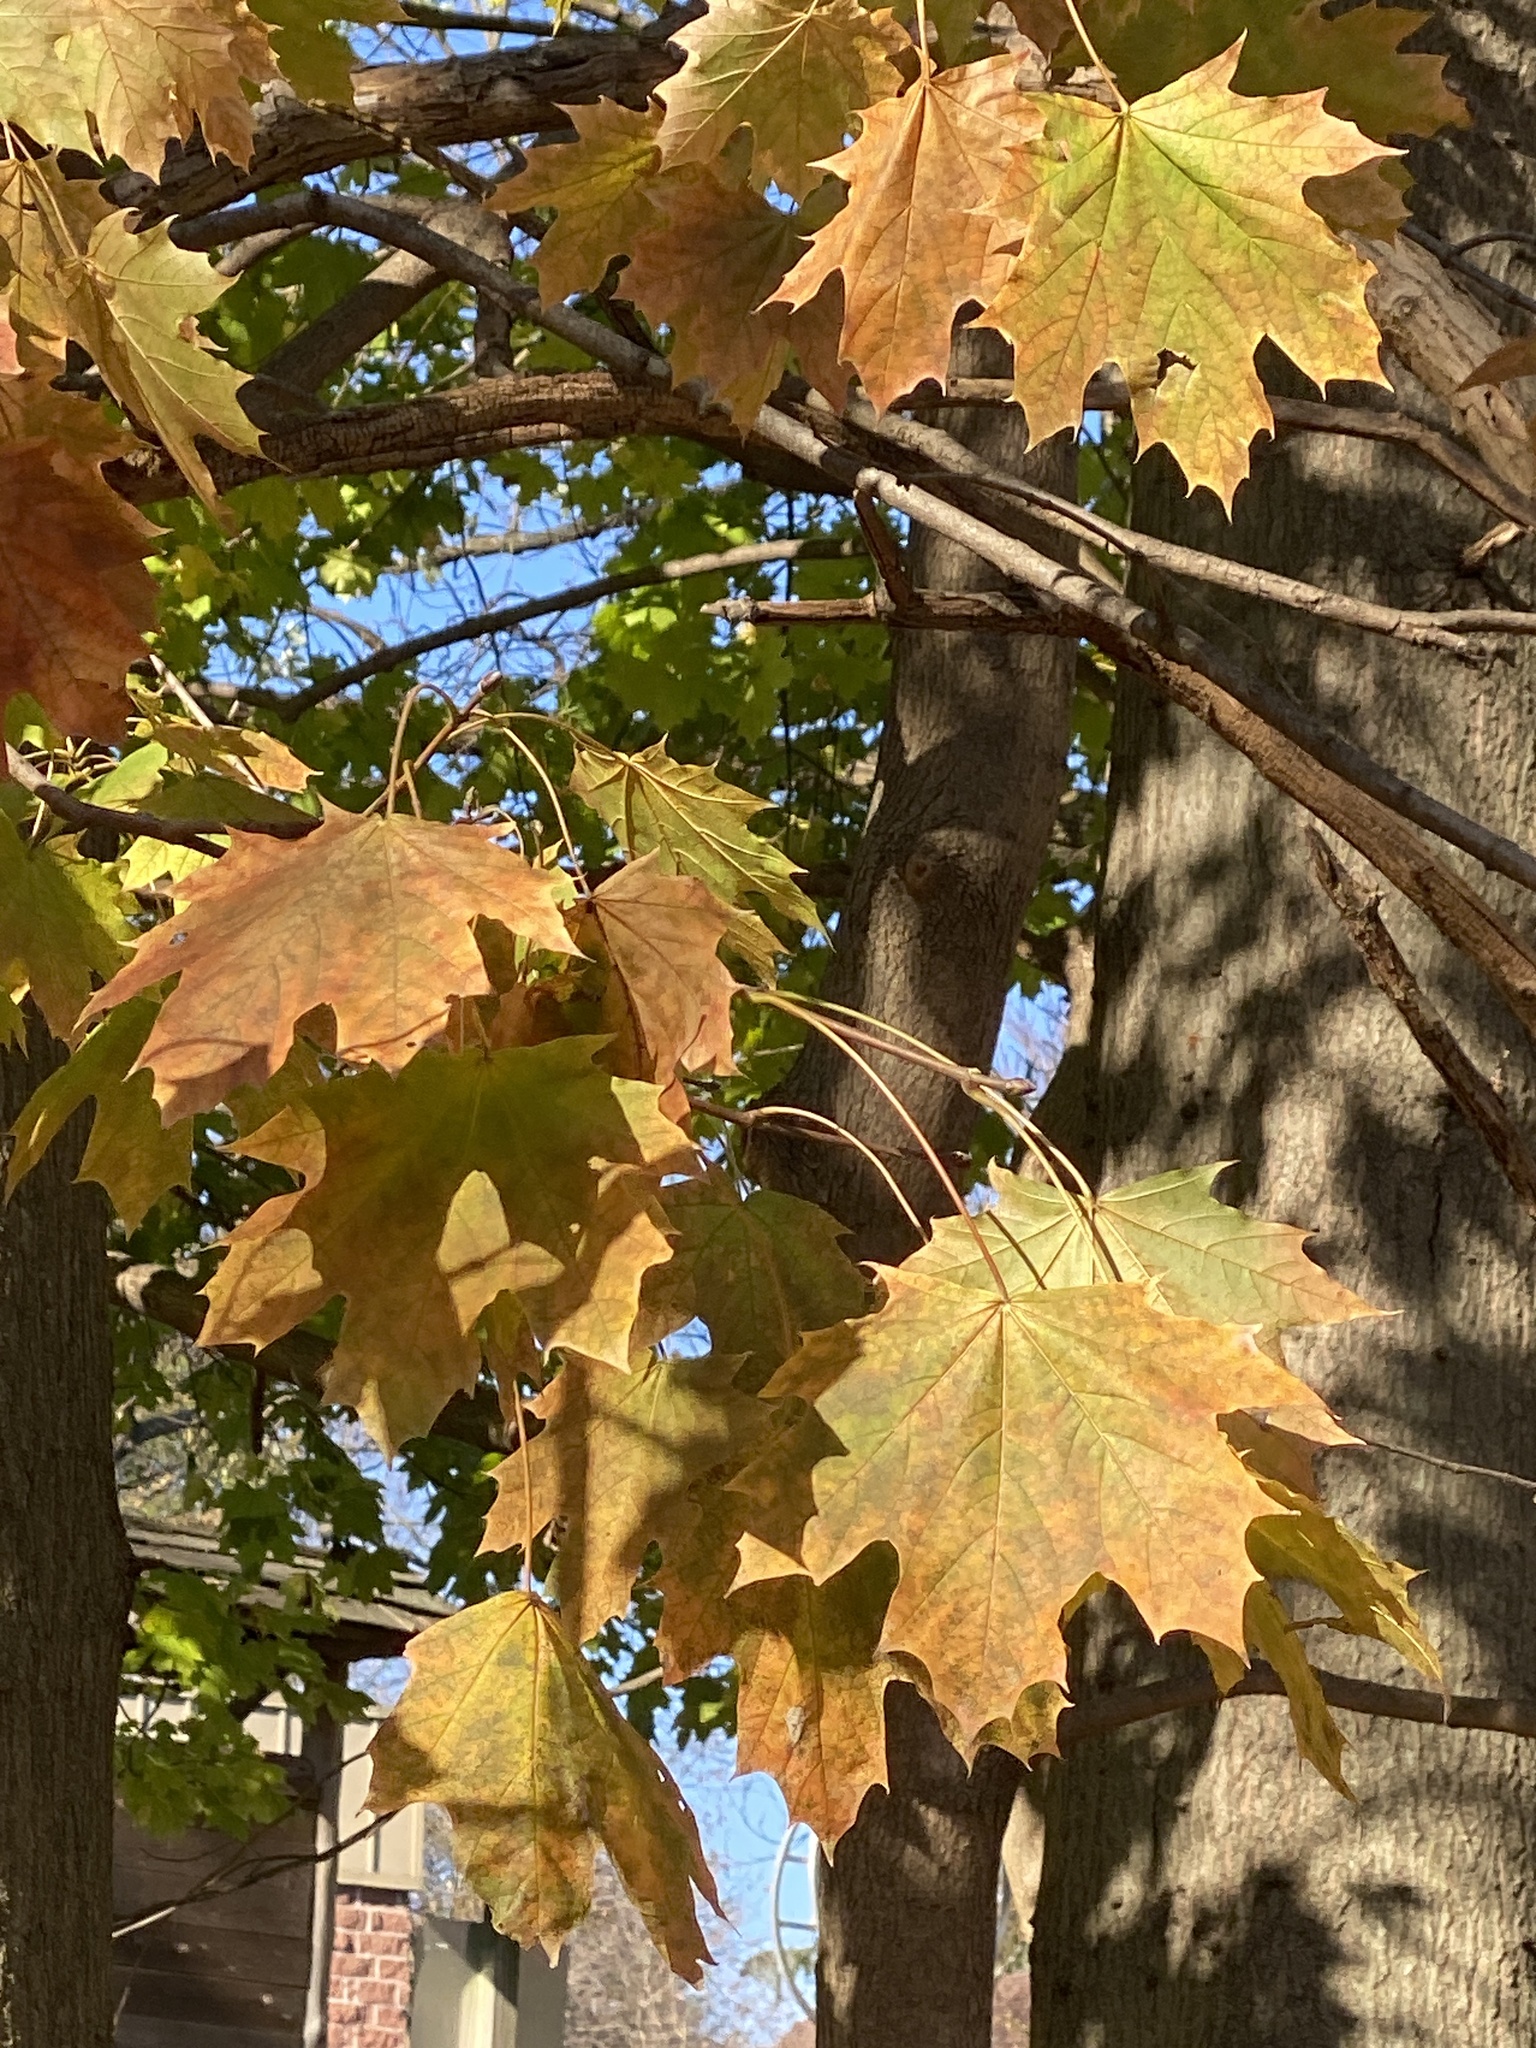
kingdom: Plantae
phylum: Tracheophyta
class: Magnoliopsida
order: Sapindales
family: Sapindaceae
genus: Acer
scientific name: Acer platanoides
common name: Norway maple
